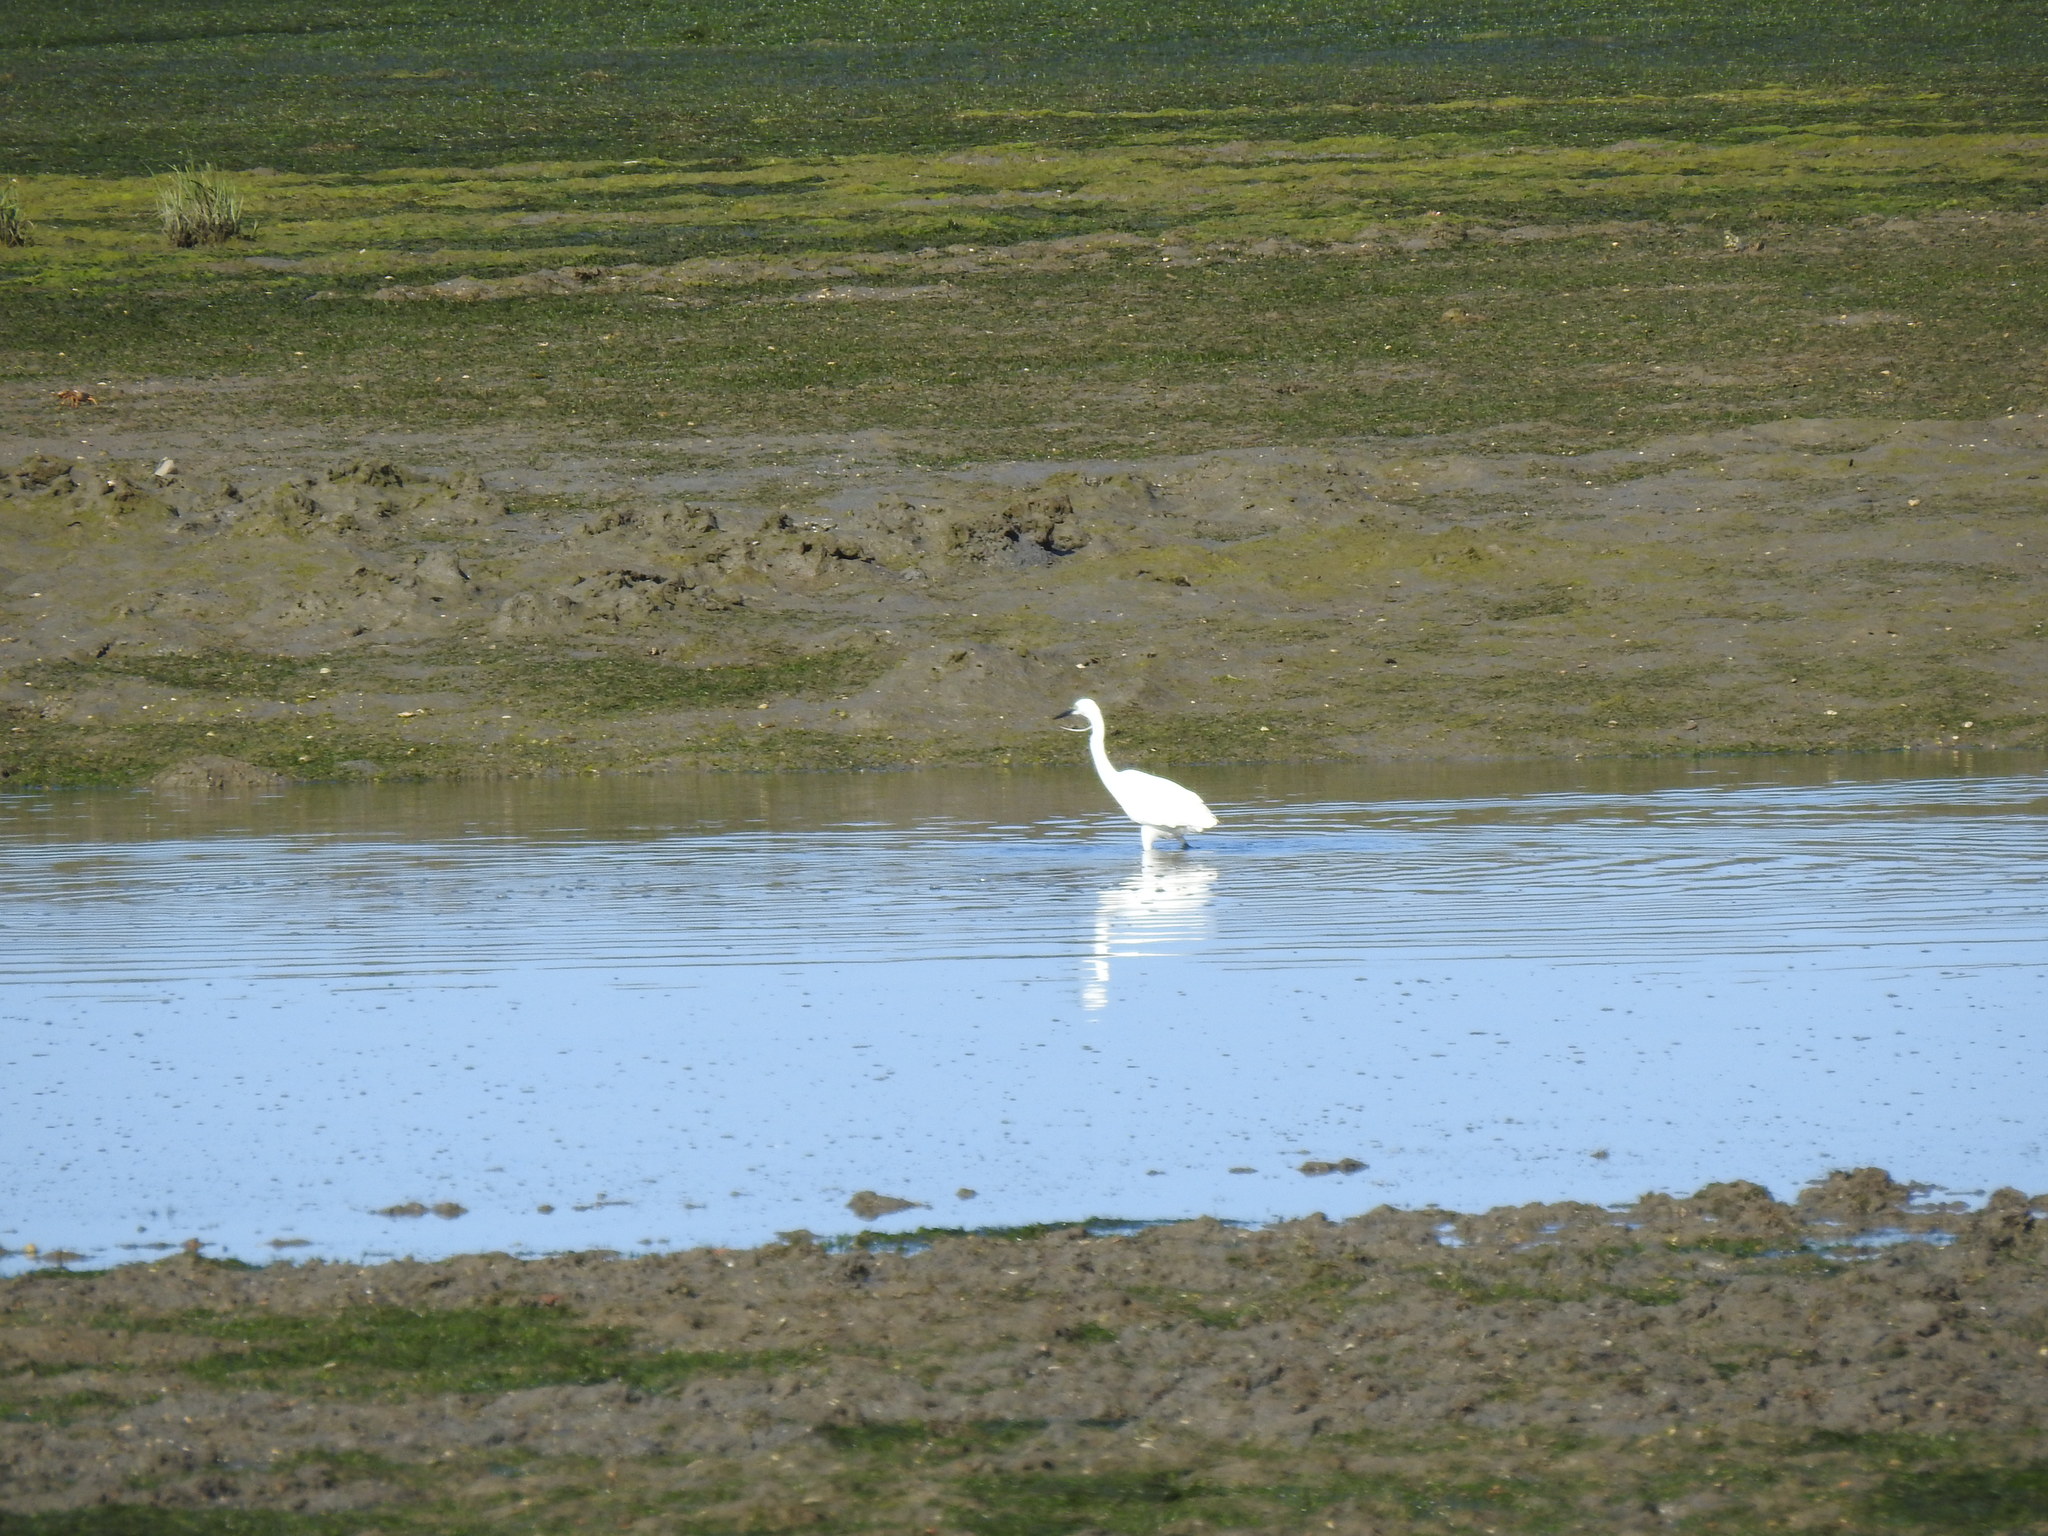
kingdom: Animalia
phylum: Chordata
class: Aves
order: Pelecaniformes
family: Ardeidae
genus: Egretta
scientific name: Egretta garzetta
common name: Little egret
